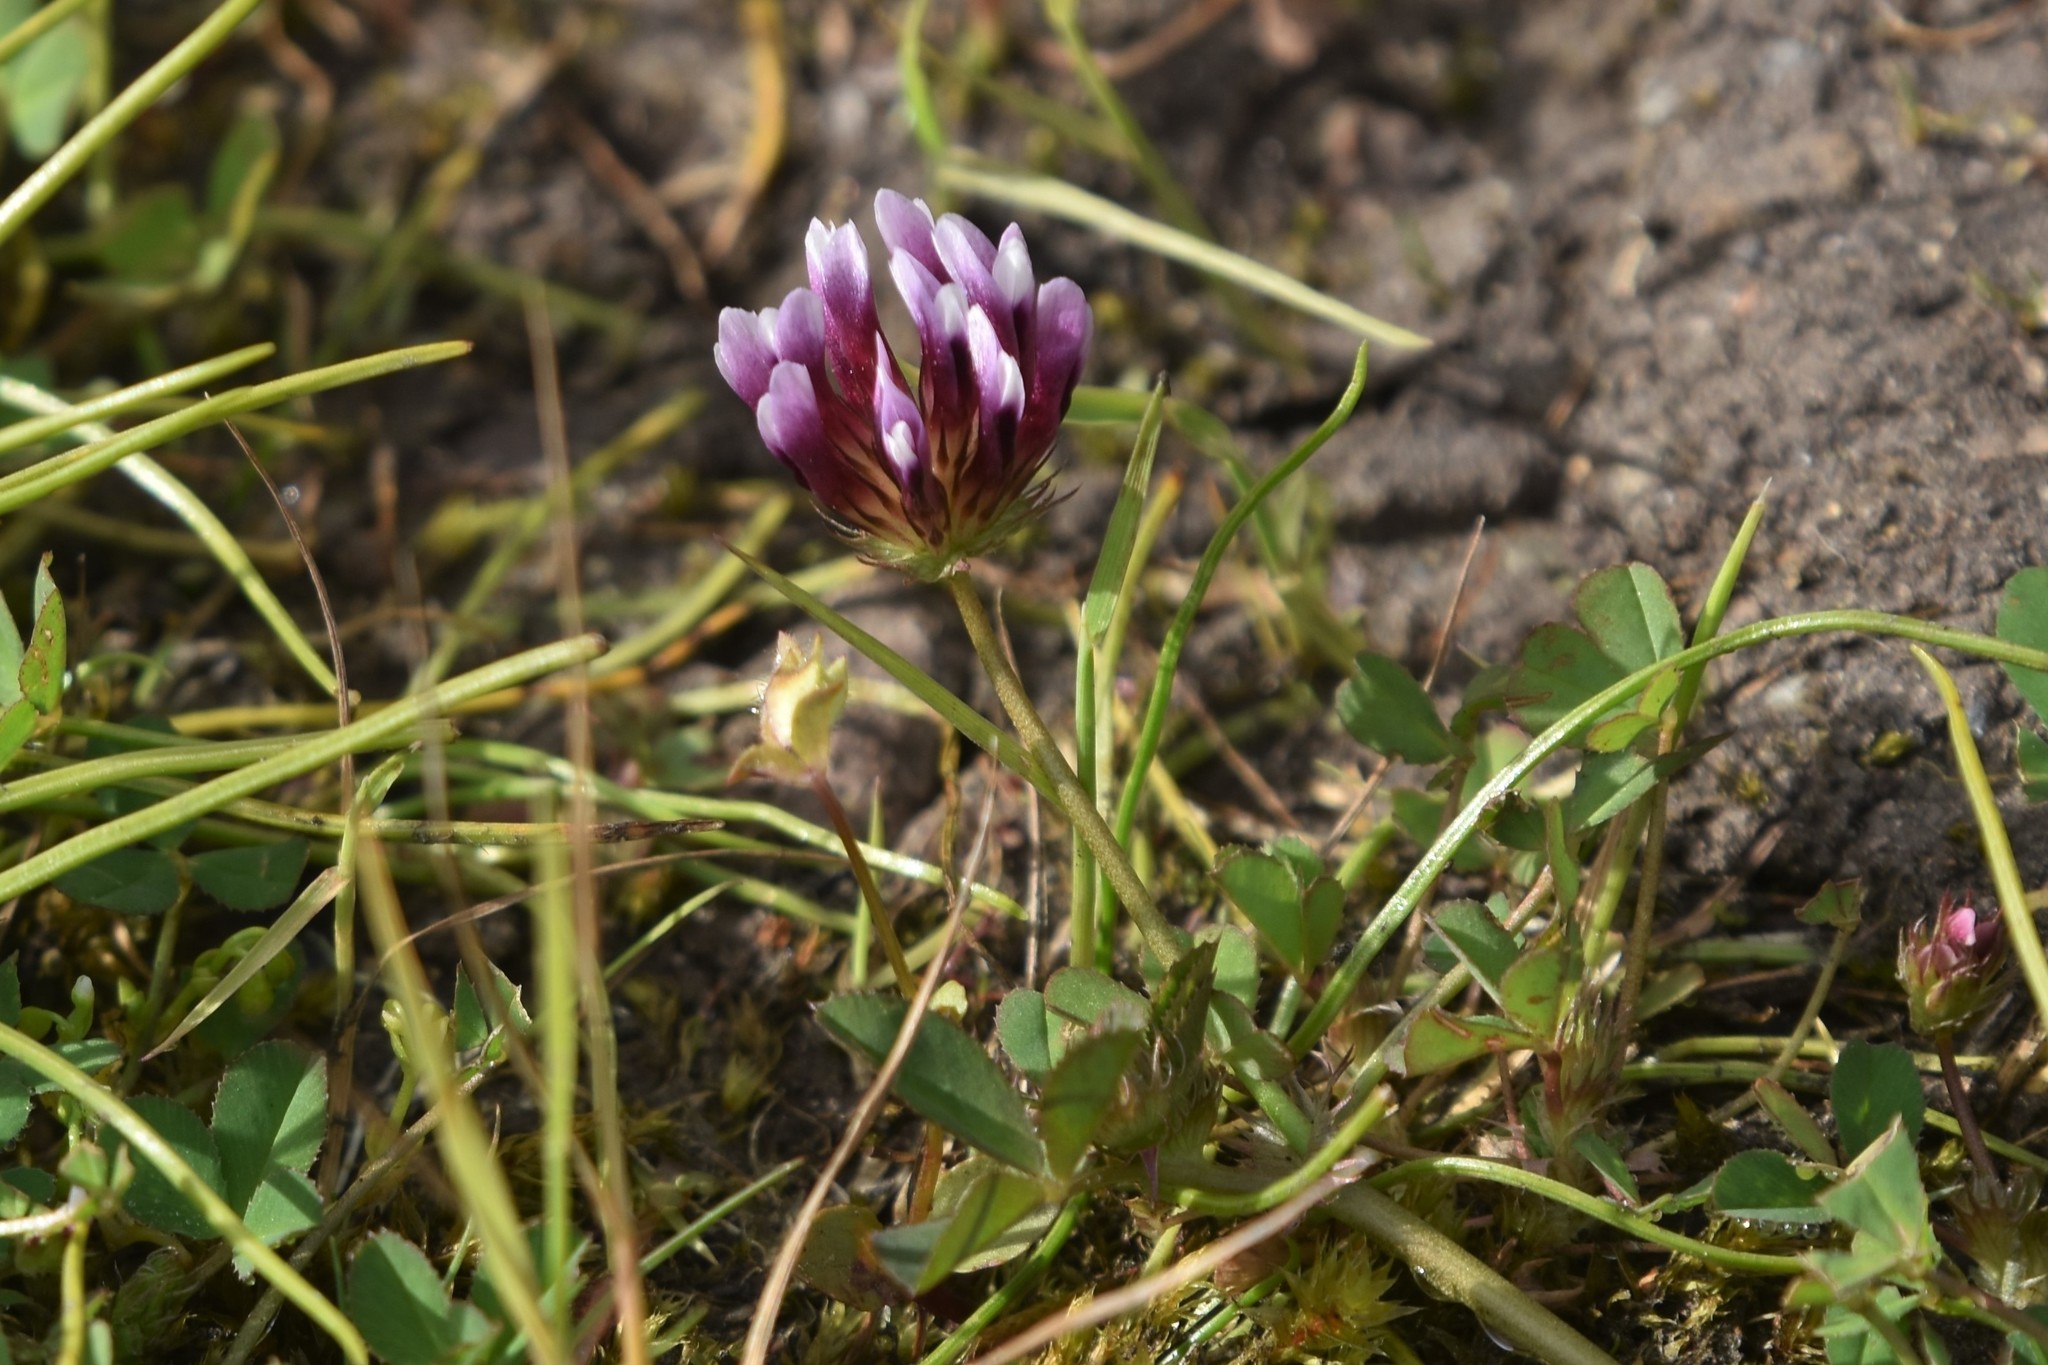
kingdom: Plantae
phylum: Tracheophyta
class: Magnoliopsida
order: Fabales
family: Fabaceae
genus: Trifolium
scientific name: Trifolium variegatum
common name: Whitetip clover
